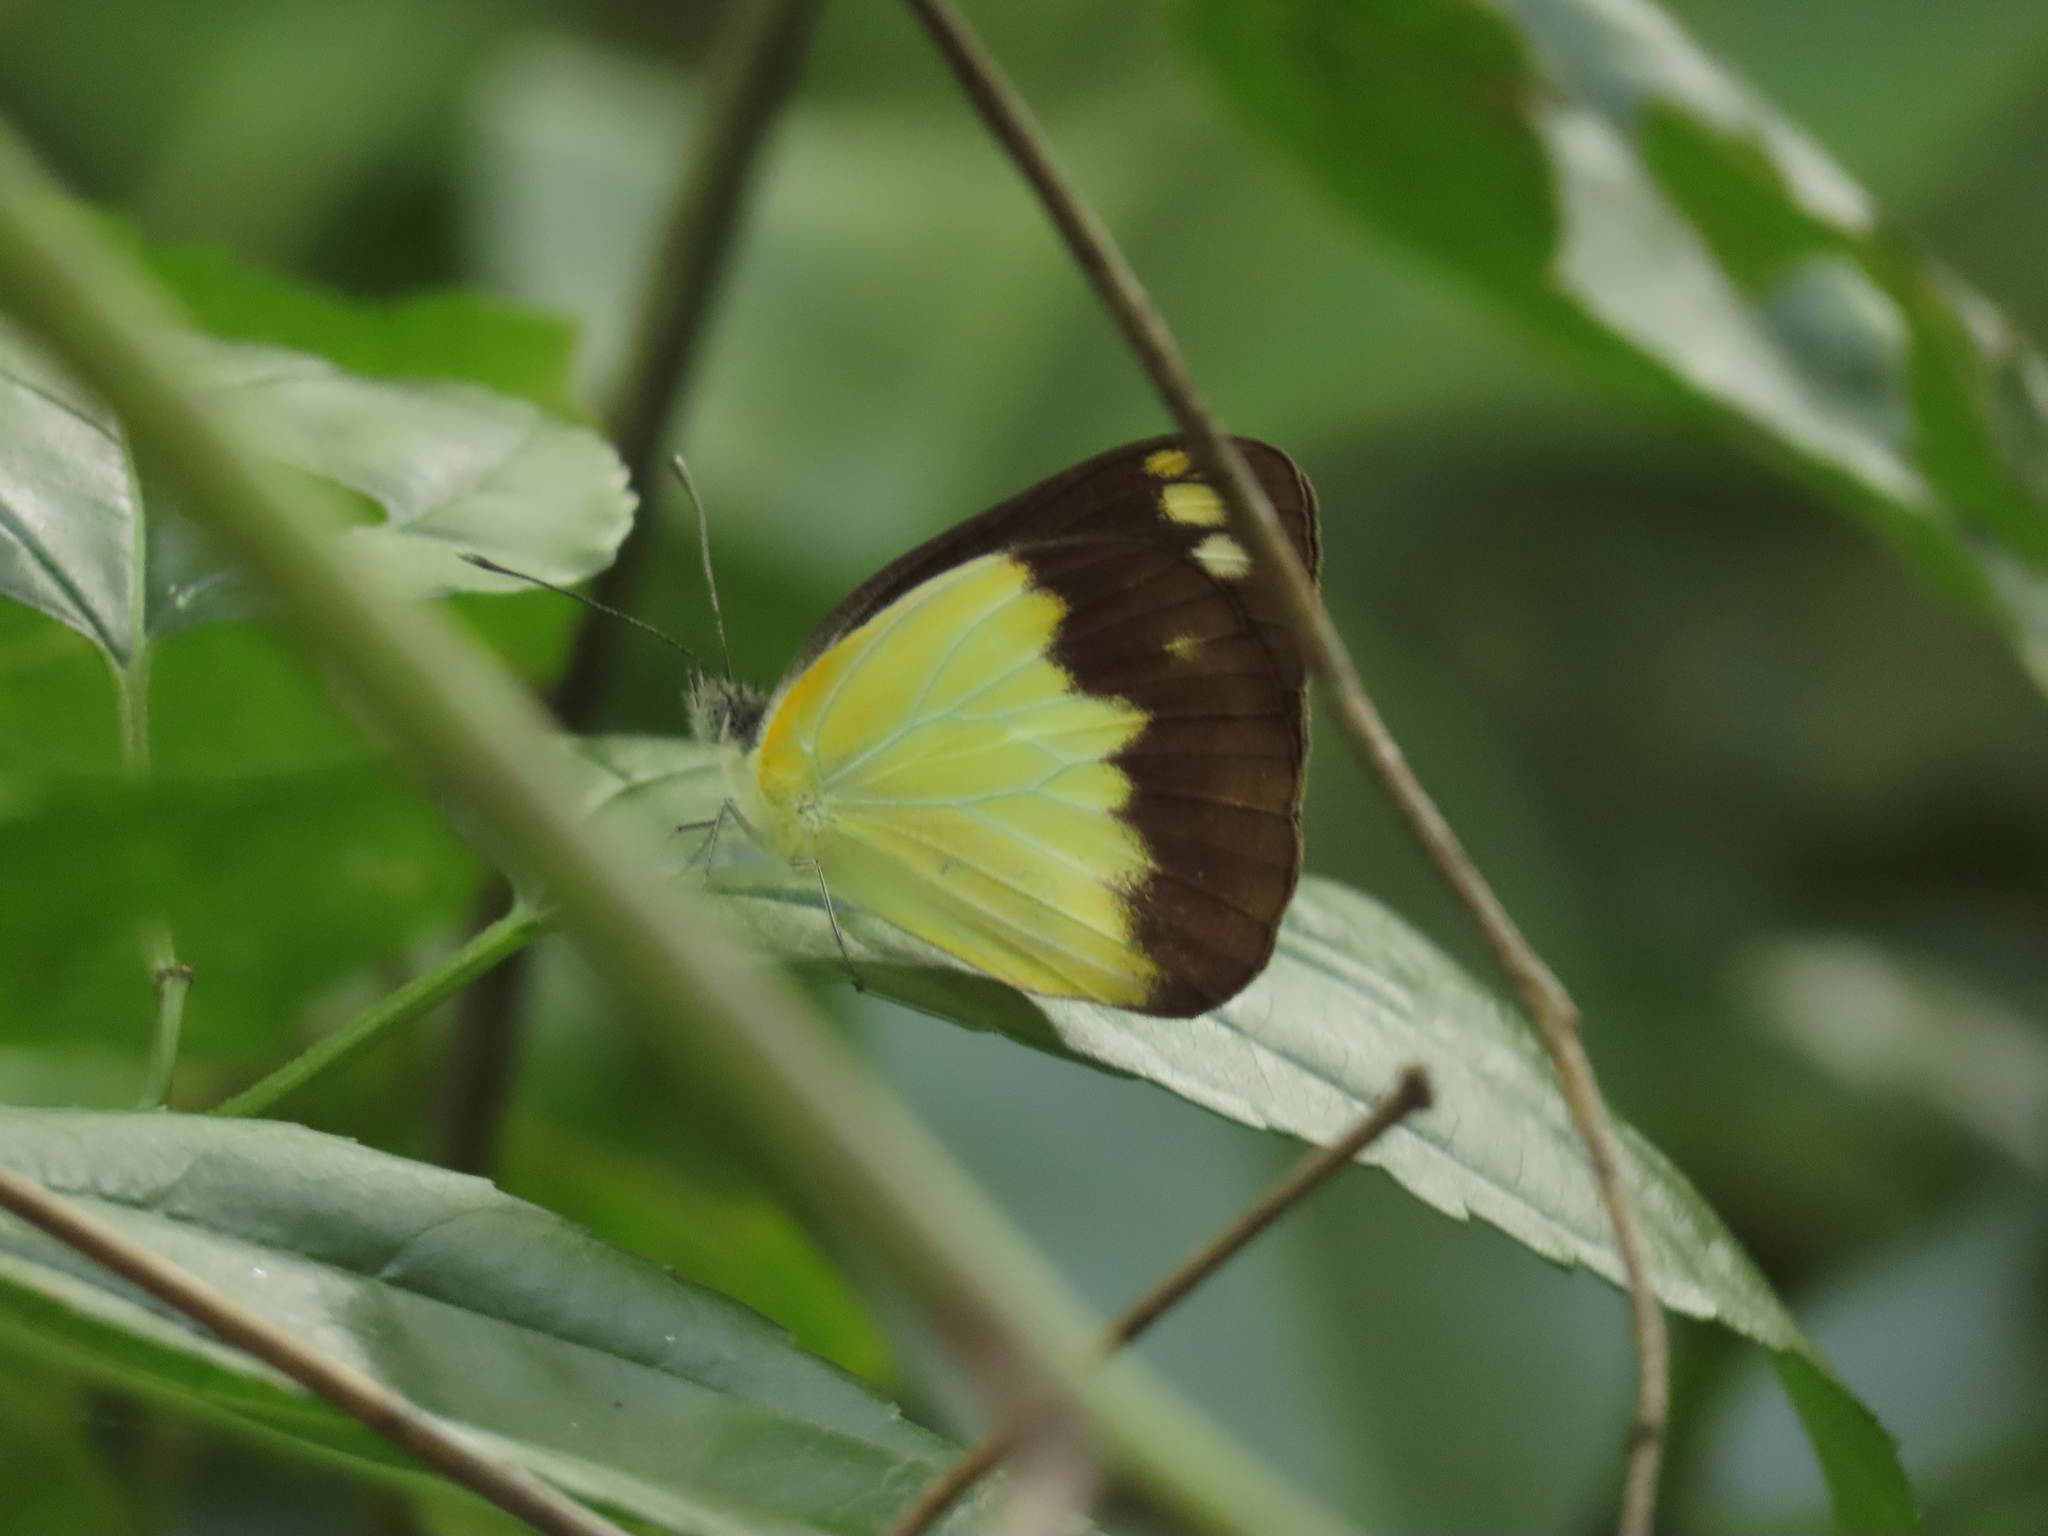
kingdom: Animalia
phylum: Arthropoda
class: Insecta
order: Lepidoptera
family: Pieridae
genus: Cepora
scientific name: Cepora perimale
